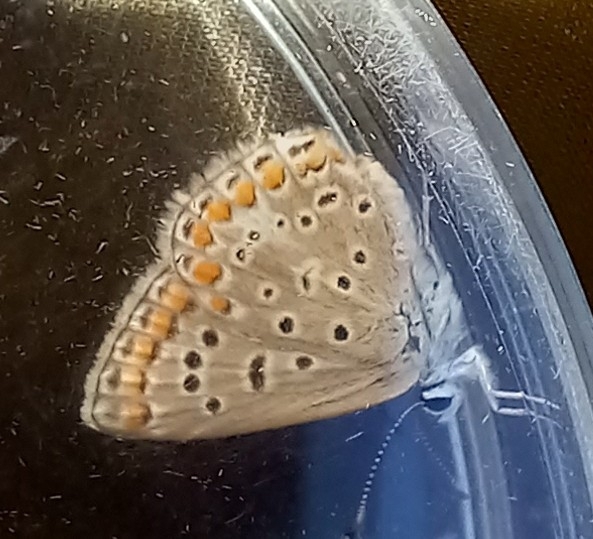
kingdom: Animalia
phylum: Arthropoda
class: Insecta
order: Lepidoptera
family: Lycaenidae
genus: Polyommatus
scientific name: Polyommatus icarus
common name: Common blue
